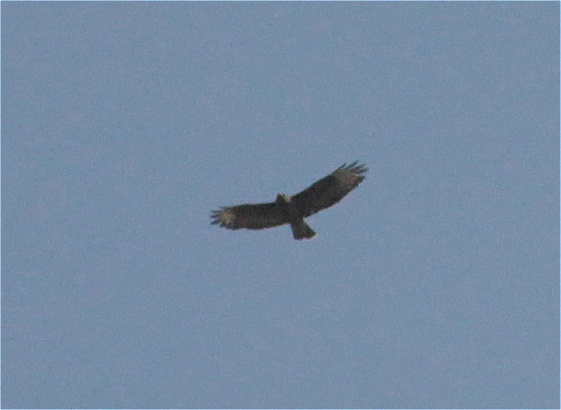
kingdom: Animalia
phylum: Chordata
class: Aves
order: Accipitriformes
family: Accipitridae
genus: Buteo
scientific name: Buteo buteo
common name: Common buzzard
